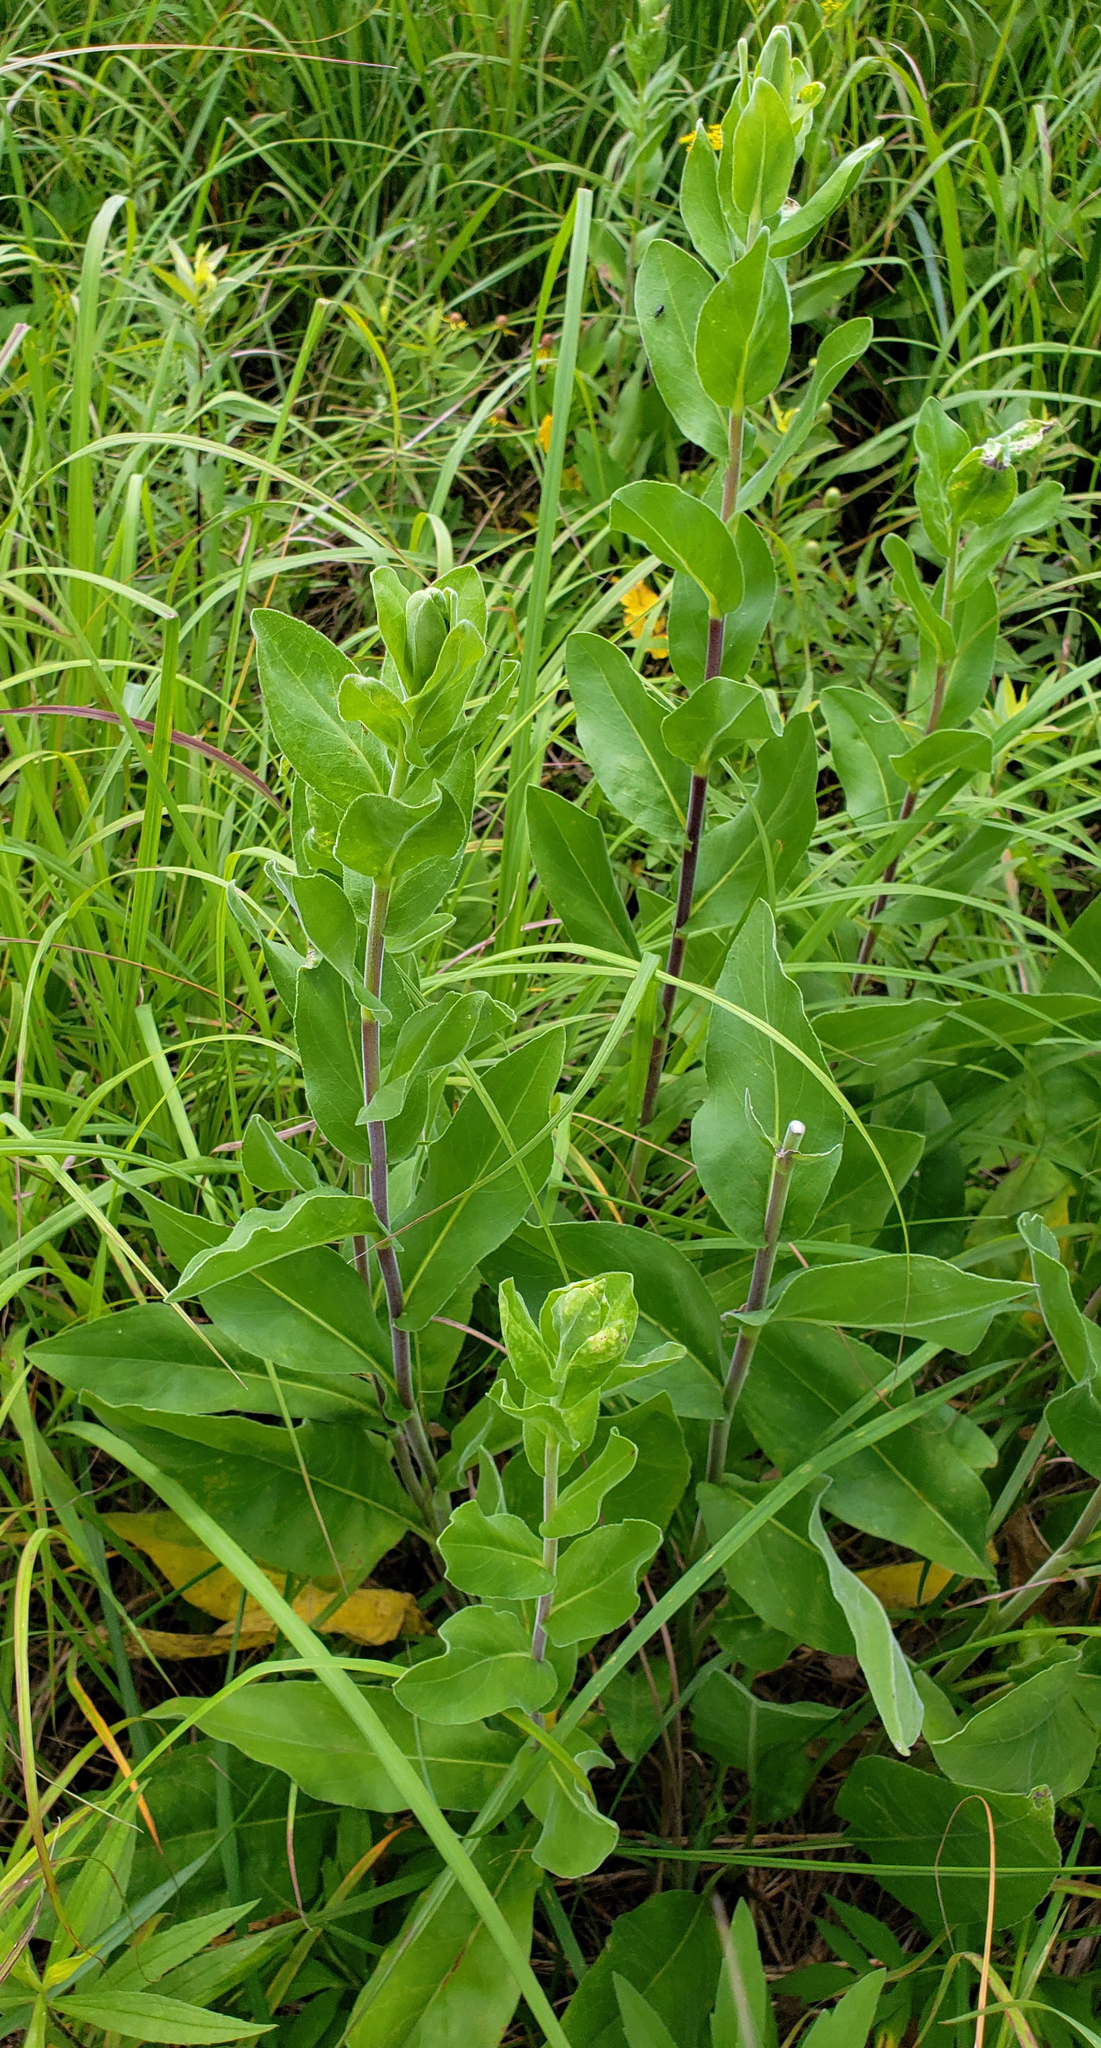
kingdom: Plantae
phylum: Tracheophyta
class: Magnoliopsida
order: Asterales
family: Asteraceae
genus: Solidago
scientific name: Solidago rigida
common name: Rigid goldenrod
